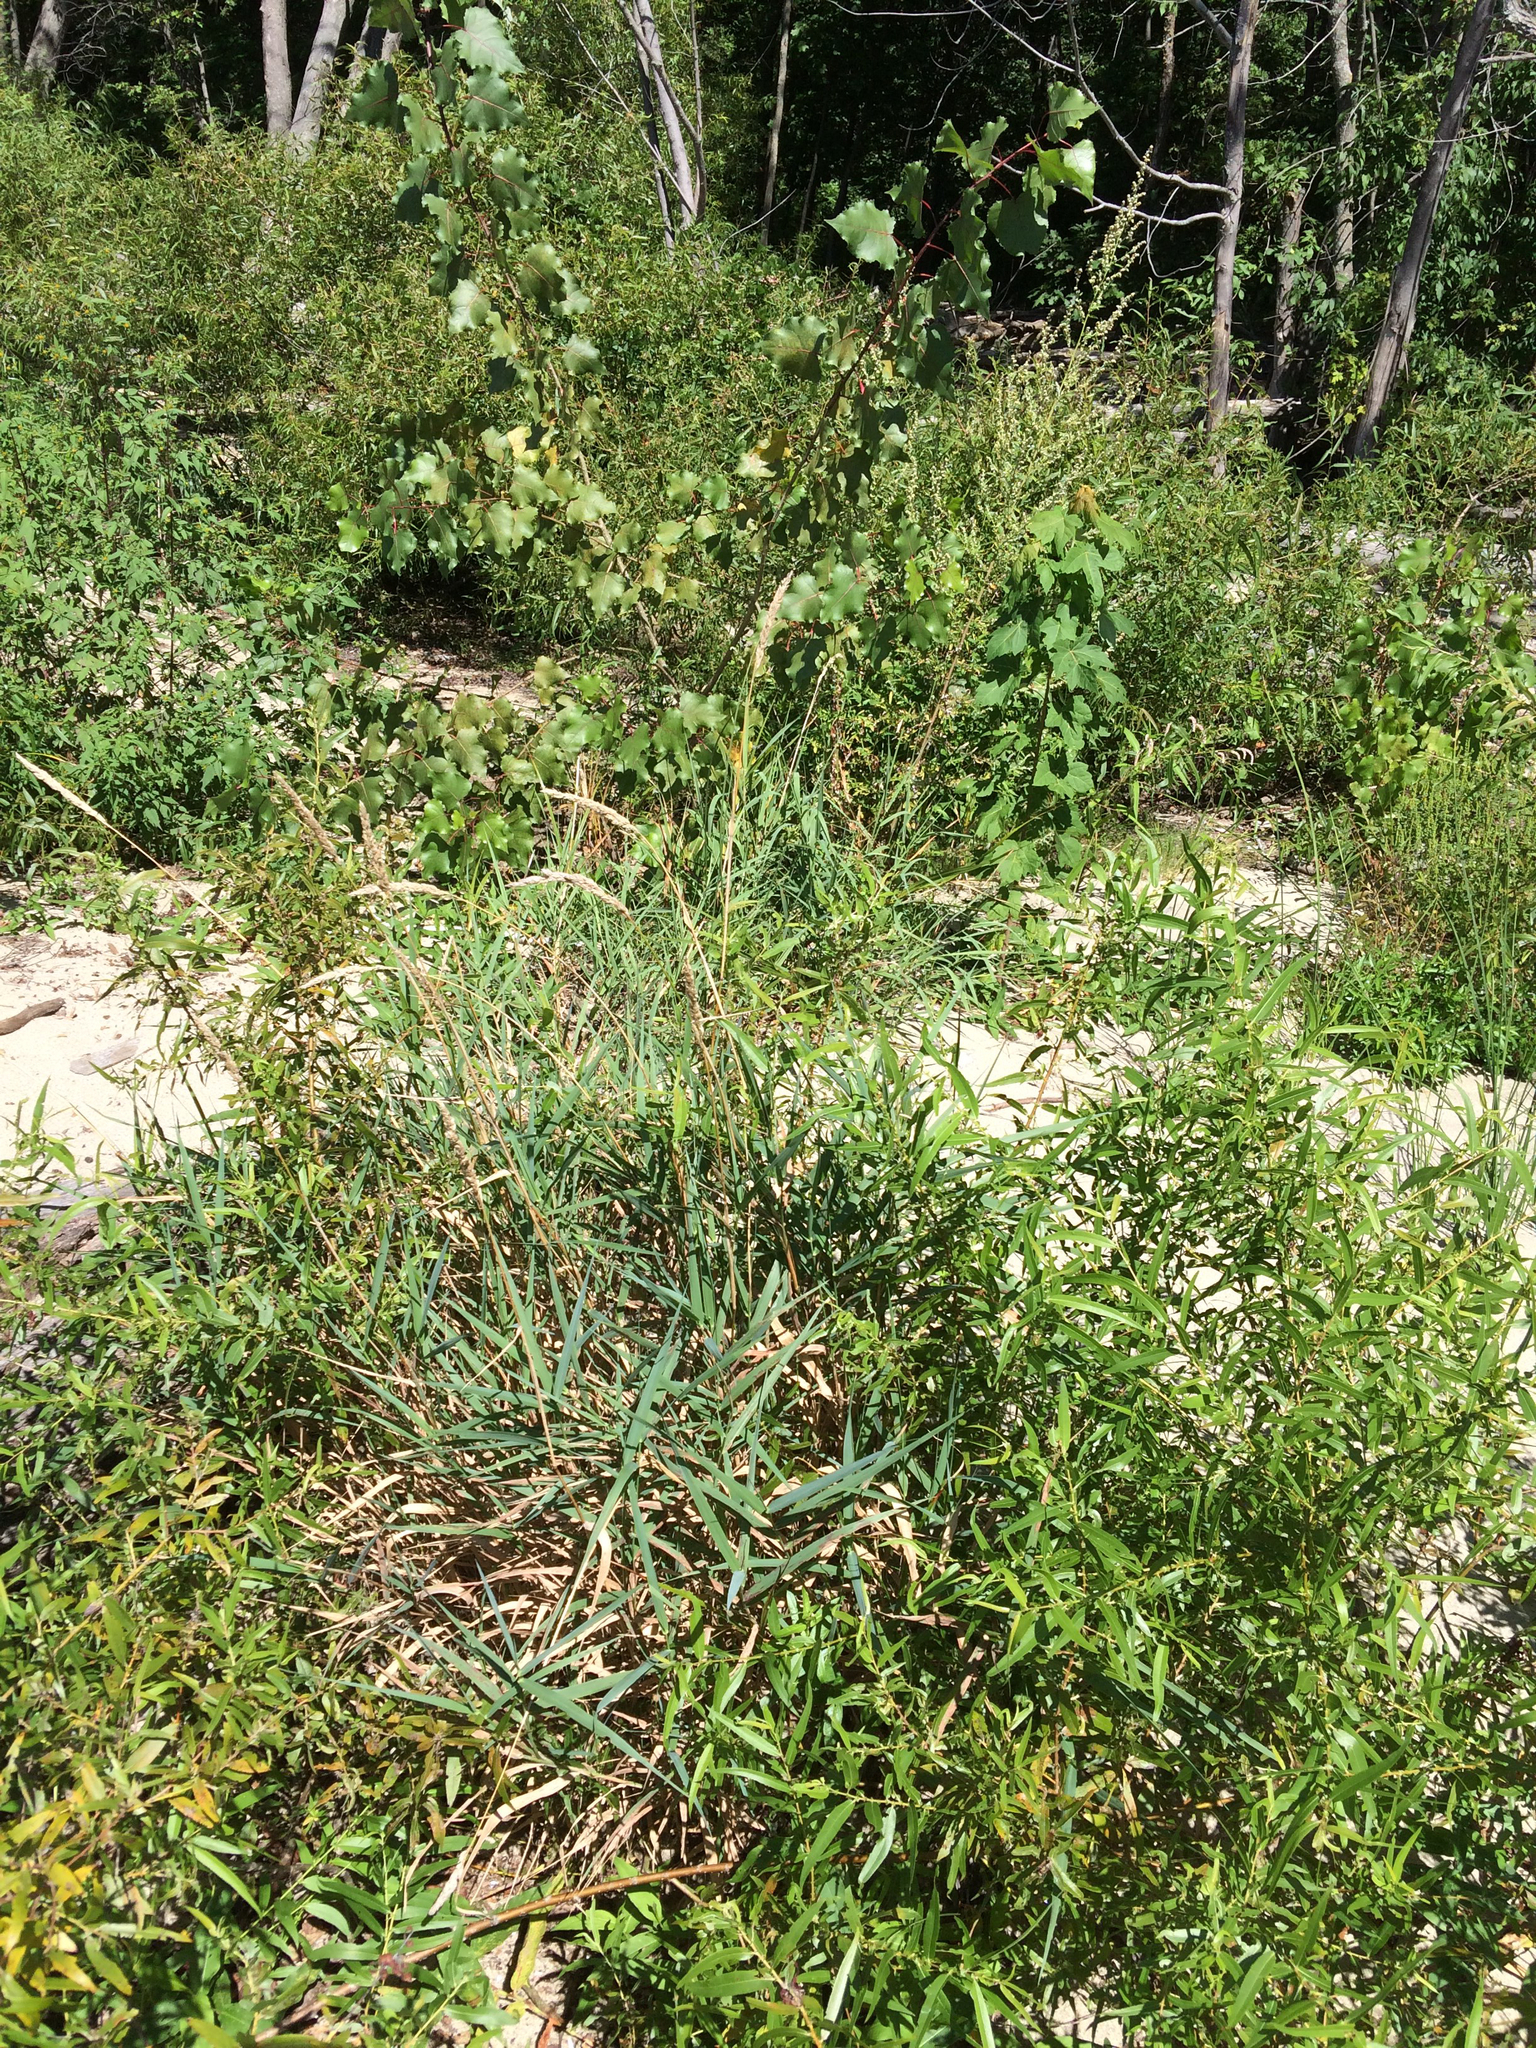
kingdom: Plantae
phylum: Tracheophyta
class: Liliopsida
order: Poales
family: Poaceae
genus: Phalaris
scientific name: Phalaris arundinacea
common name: Reed canary-grass
